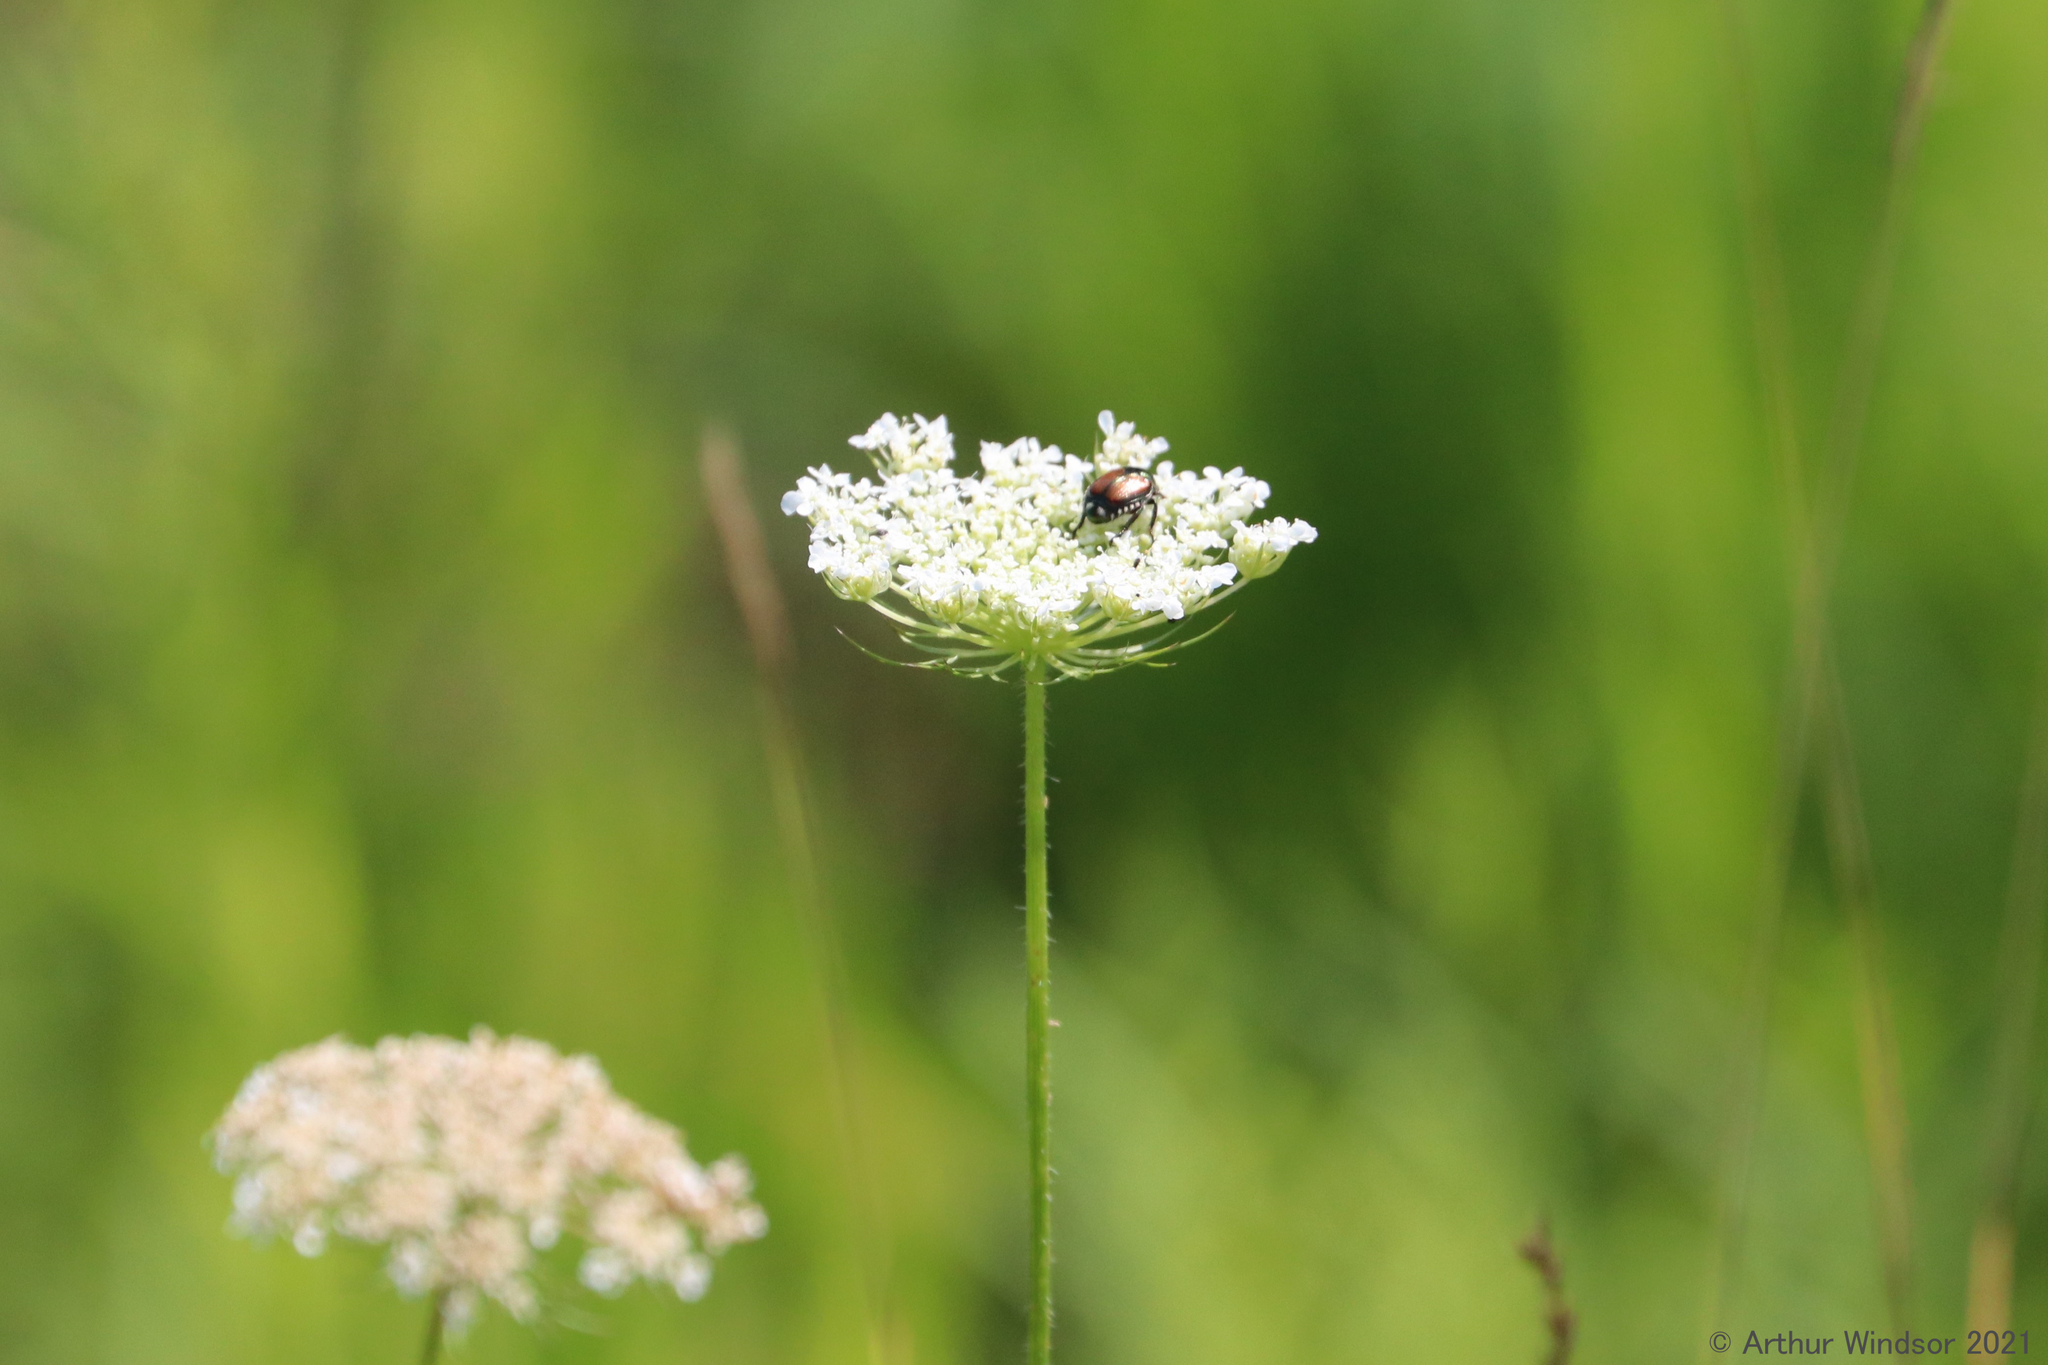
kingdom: Animalia
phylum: Arthropoda
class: Insecta
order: Coleoptera
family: Scarabaeidae
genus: Popillia
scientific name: Popillia japonica
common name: Japanese beetle
